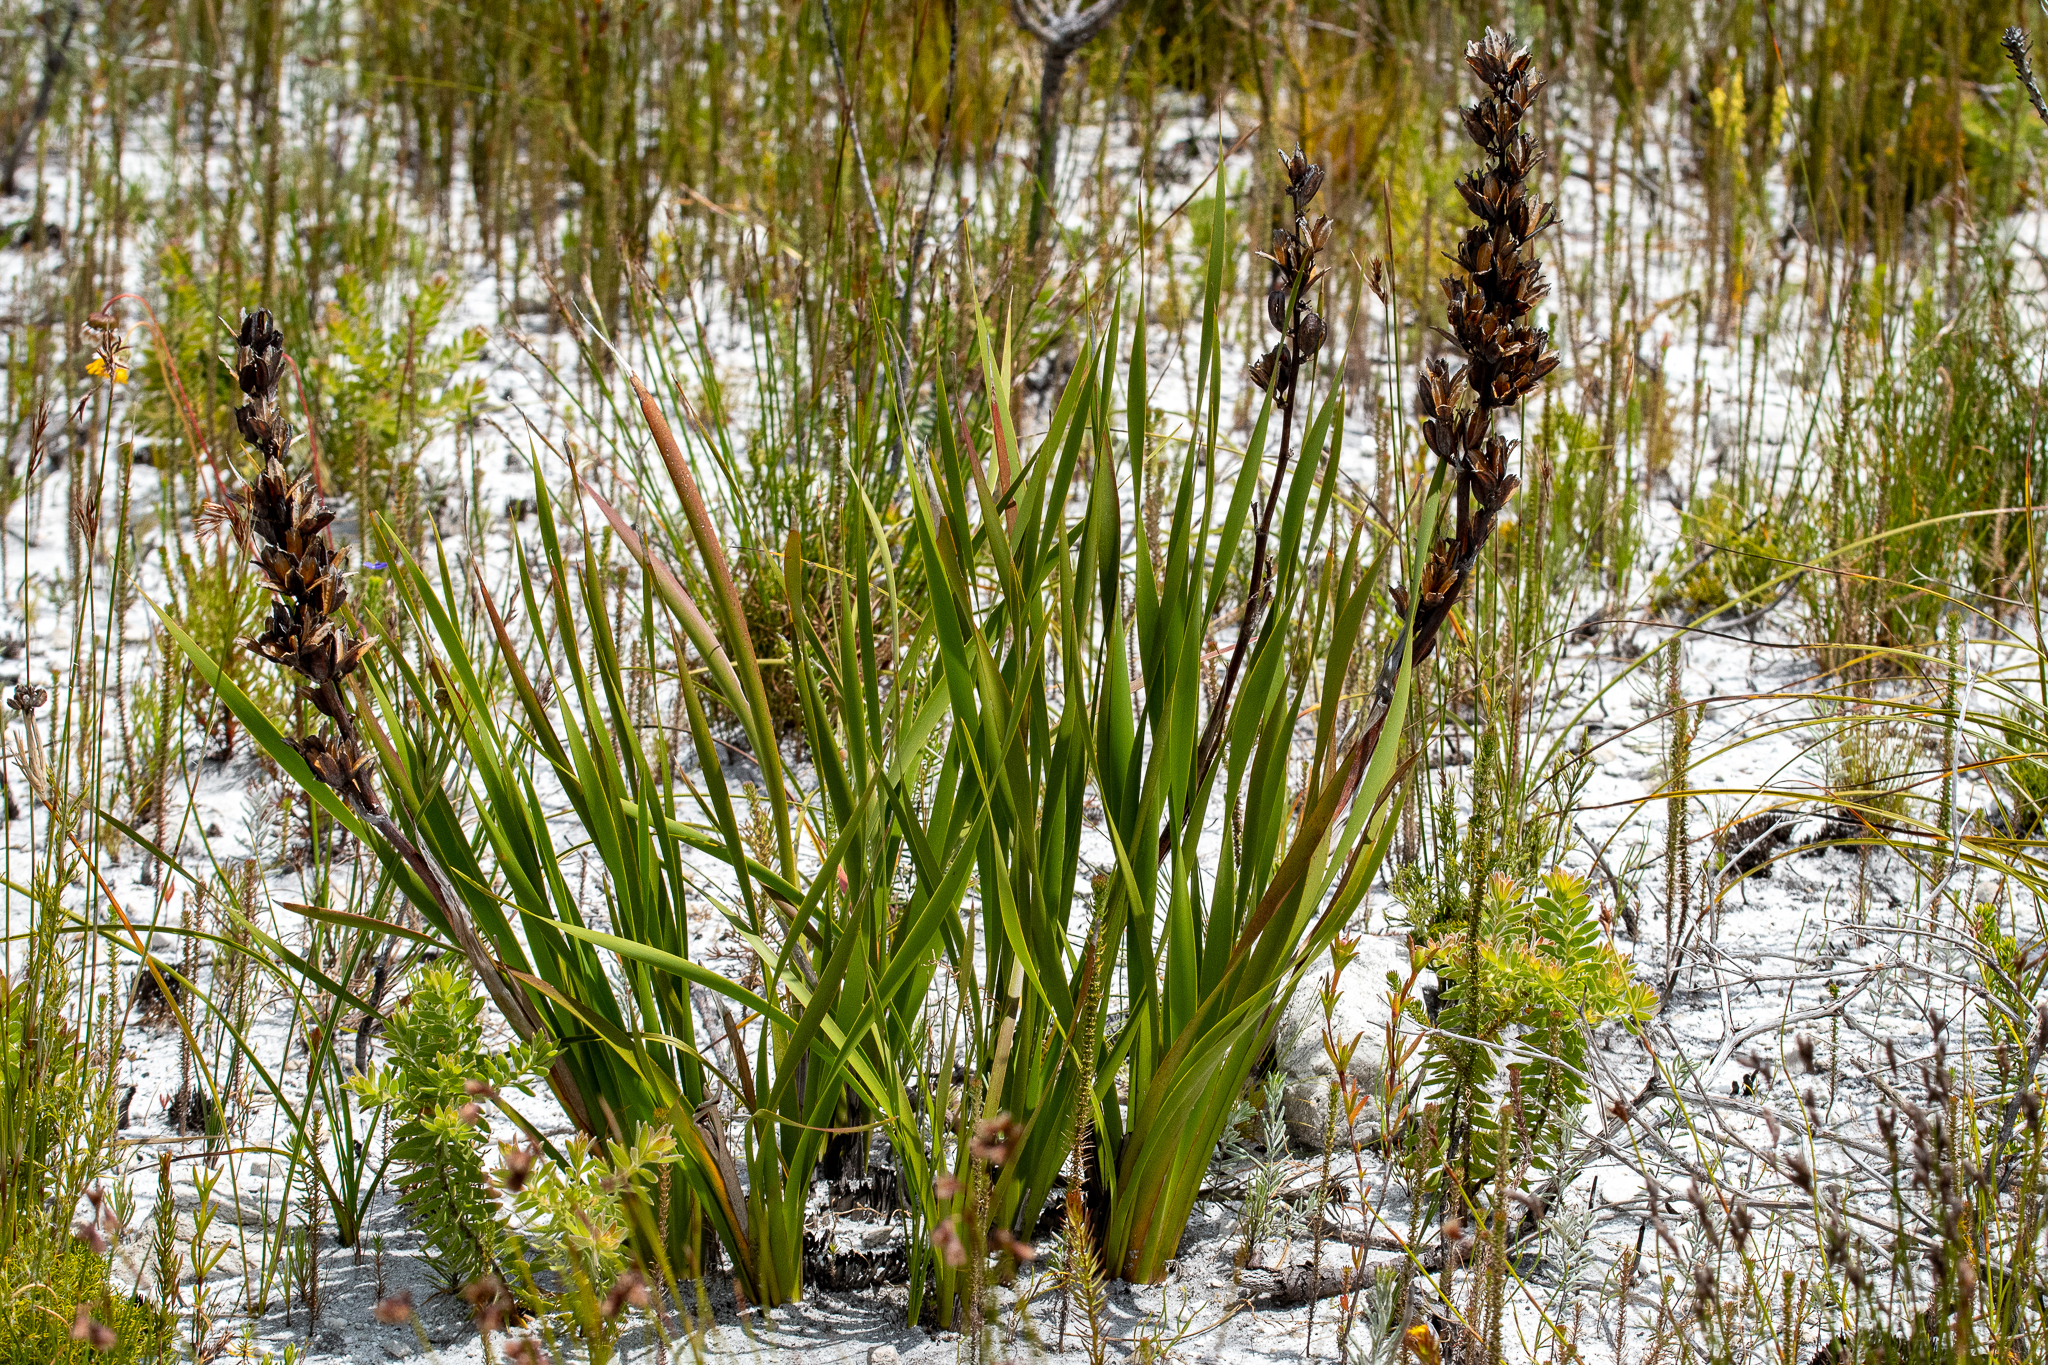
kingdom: Plantae
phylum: Tracheophyta
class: Liliopsida
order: Asparagales
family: Iridaceae
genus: Aristea
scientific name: Aristea bakeri
